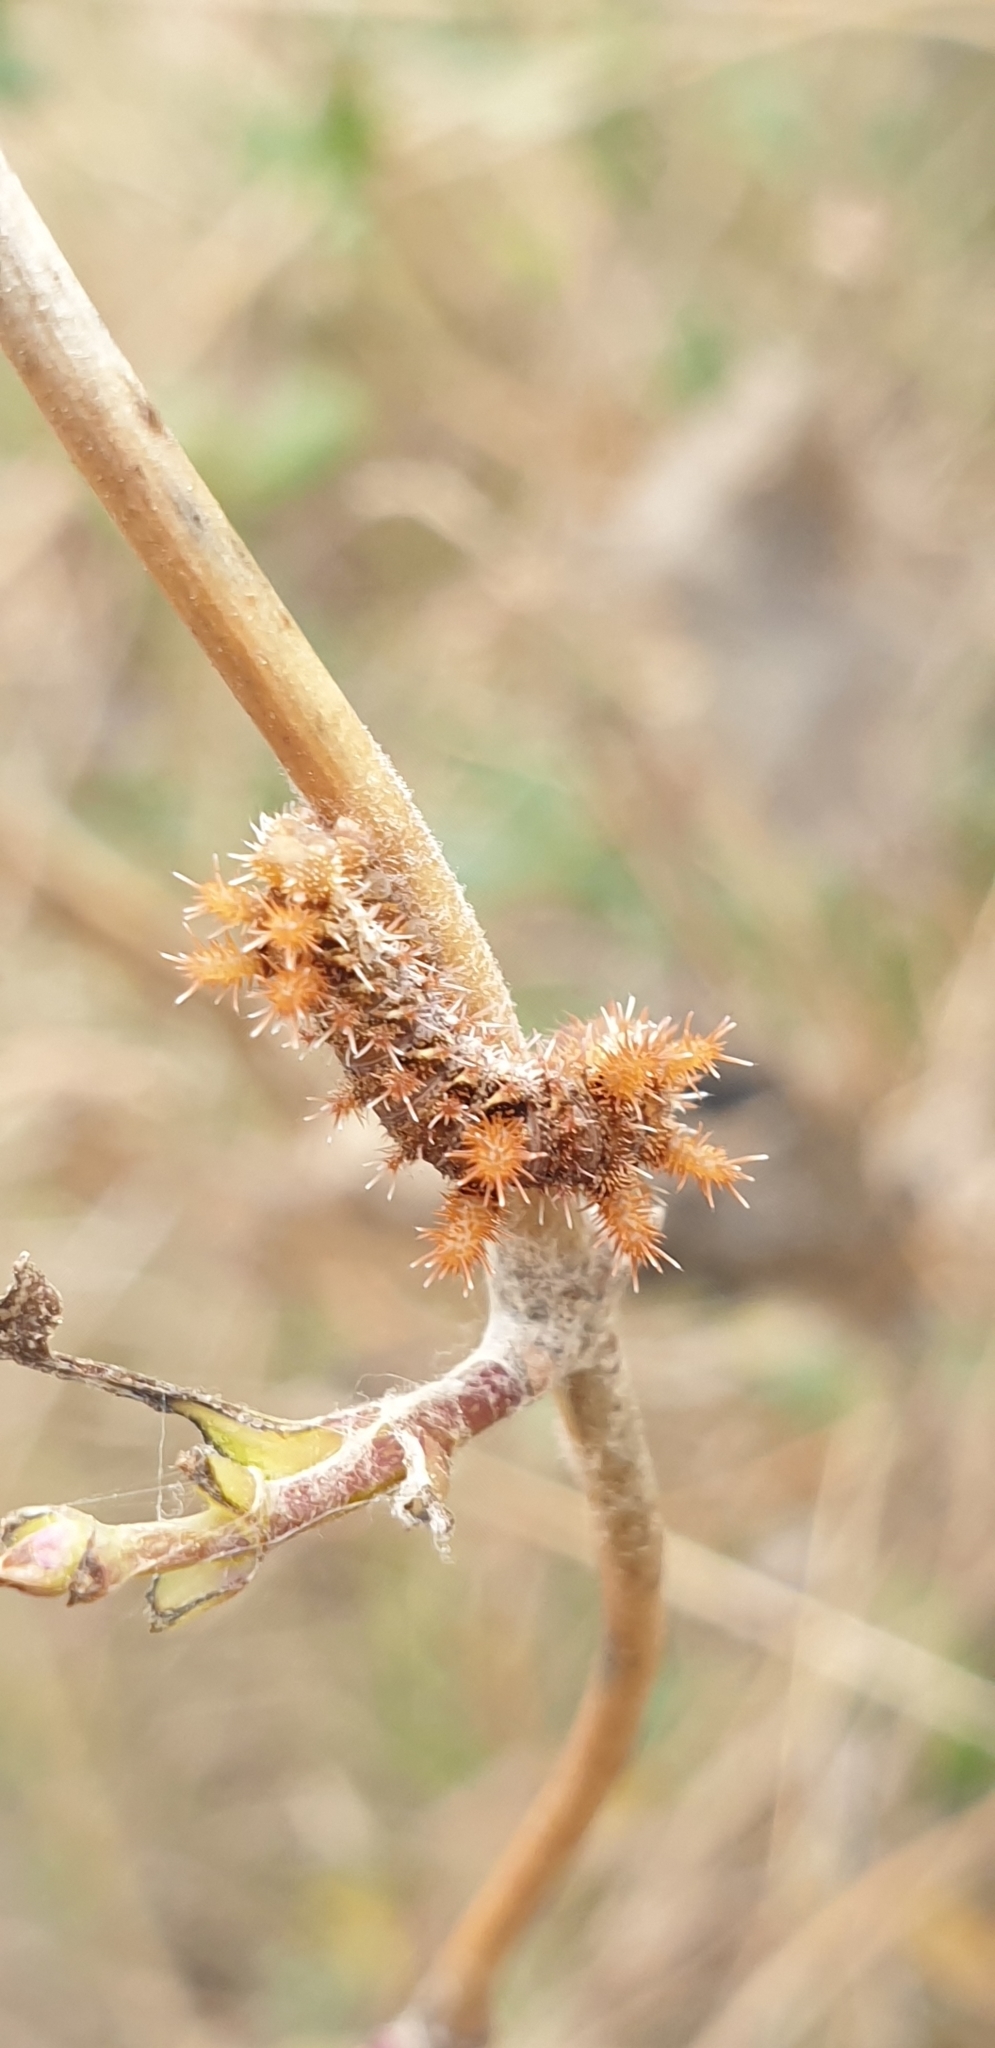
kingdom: Animalia
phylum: Arthropoda
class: Insecta
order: Lepidoptera
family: Nymphalidae
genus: Limenitis
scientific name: Limenitis reducta
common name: Southern white admiral
